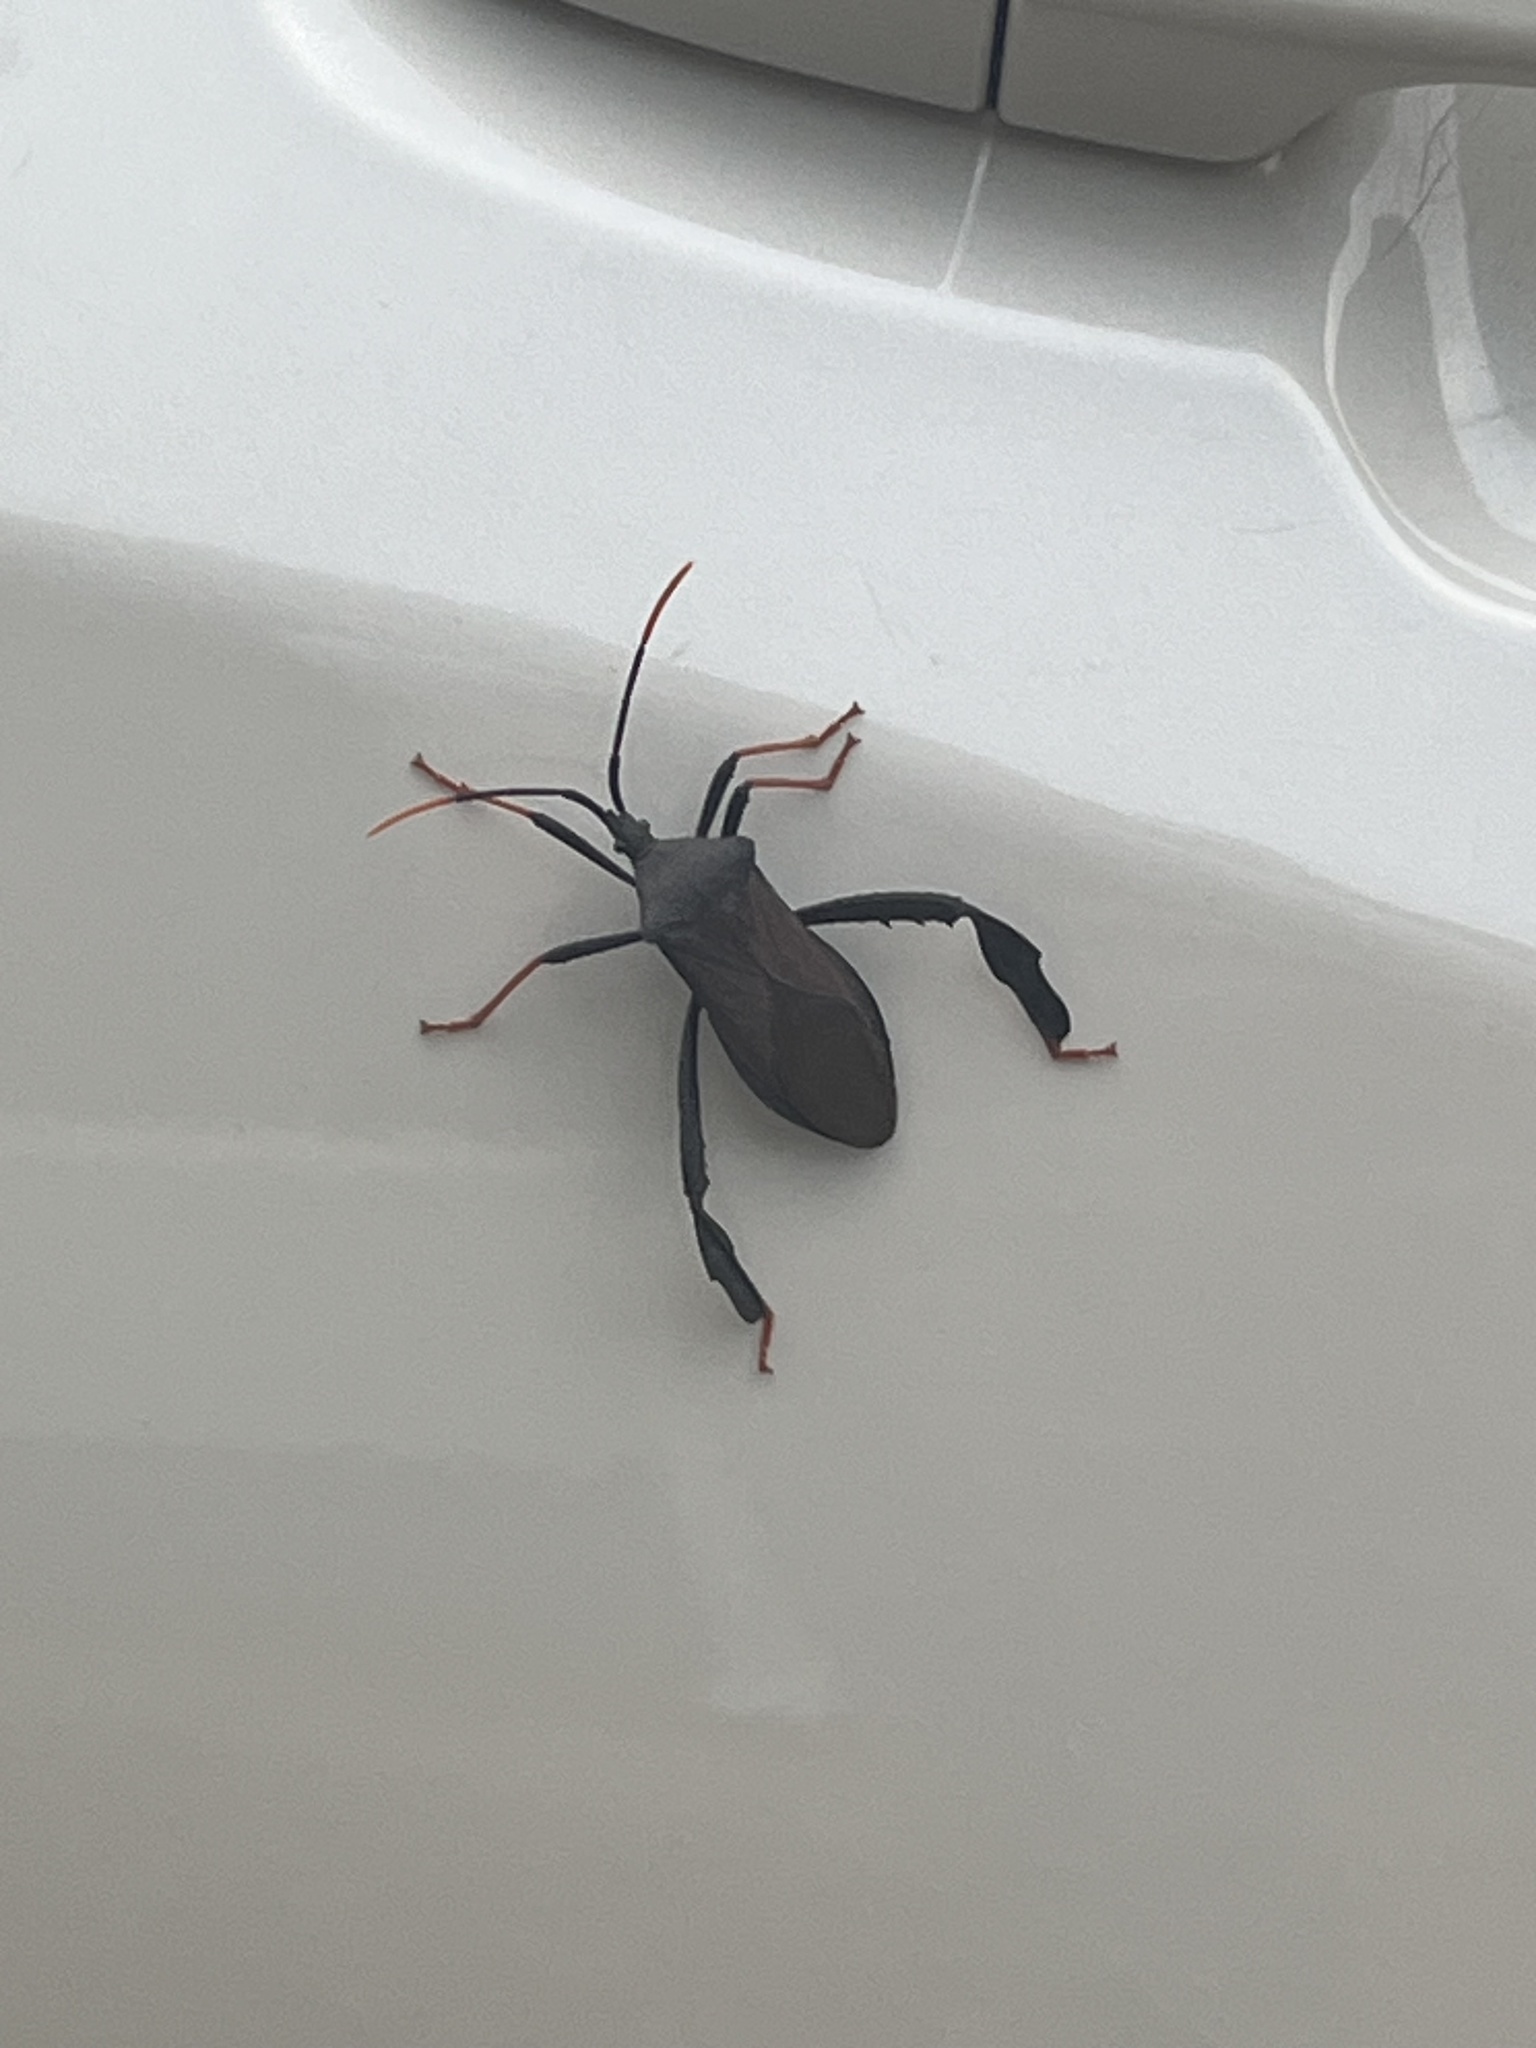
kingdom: Animalia
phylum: Arthropoda
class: Insecta
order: Hemiptera
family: Coreidae
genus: Acanthocephala
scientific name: Acanthocephala thomasi
